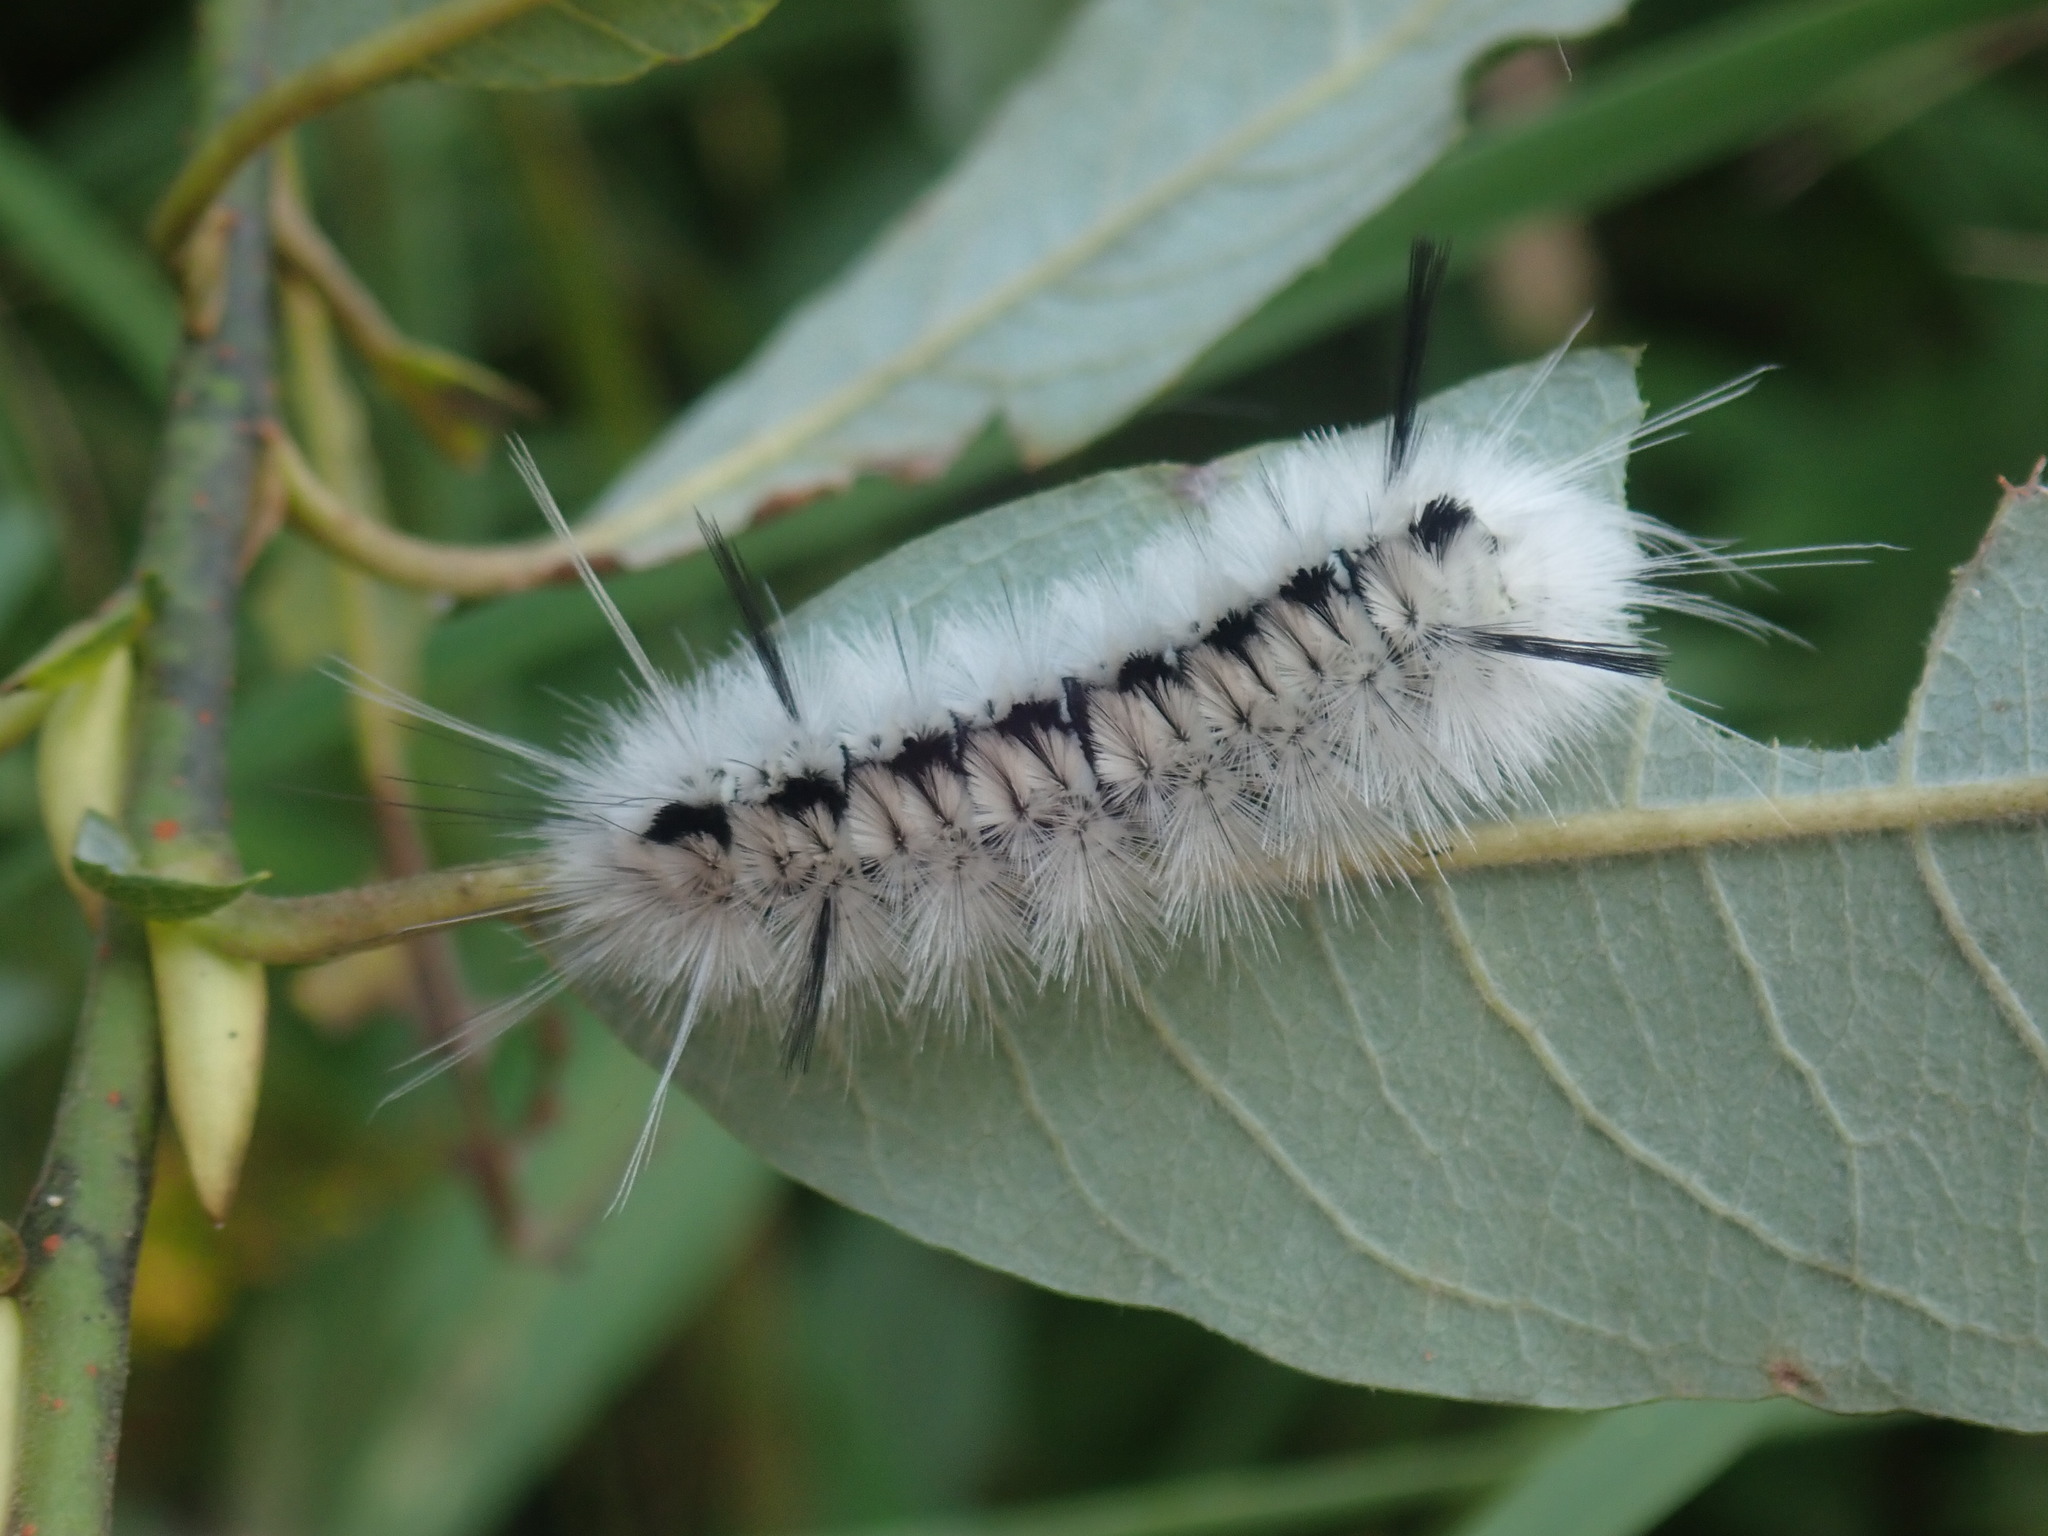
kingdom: Animalia
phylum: Arthropoda
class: Insecta
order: Lepidoptera
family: Erebidae
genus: Lophocampa
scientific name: Lophocampa caryae
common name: Hickory tussock moth
